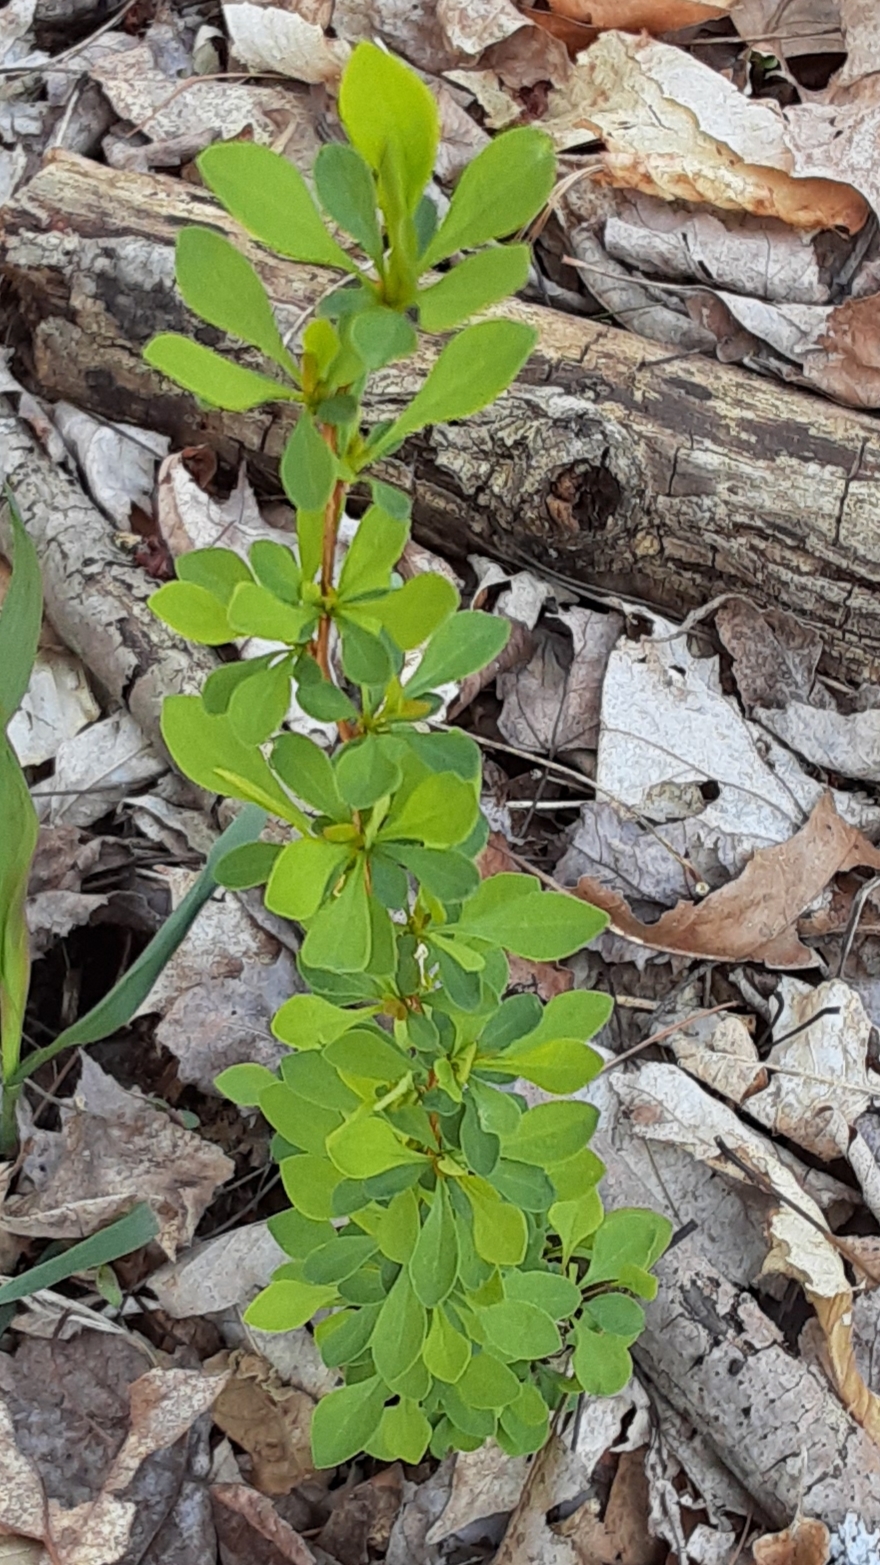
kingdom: Plantae
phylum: Tracheophyta
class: Magnoliopsida
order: Ranunculales
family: Berberidaceae
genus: Berberis
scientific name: Berberis thunbergii
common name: Japanese barberry
